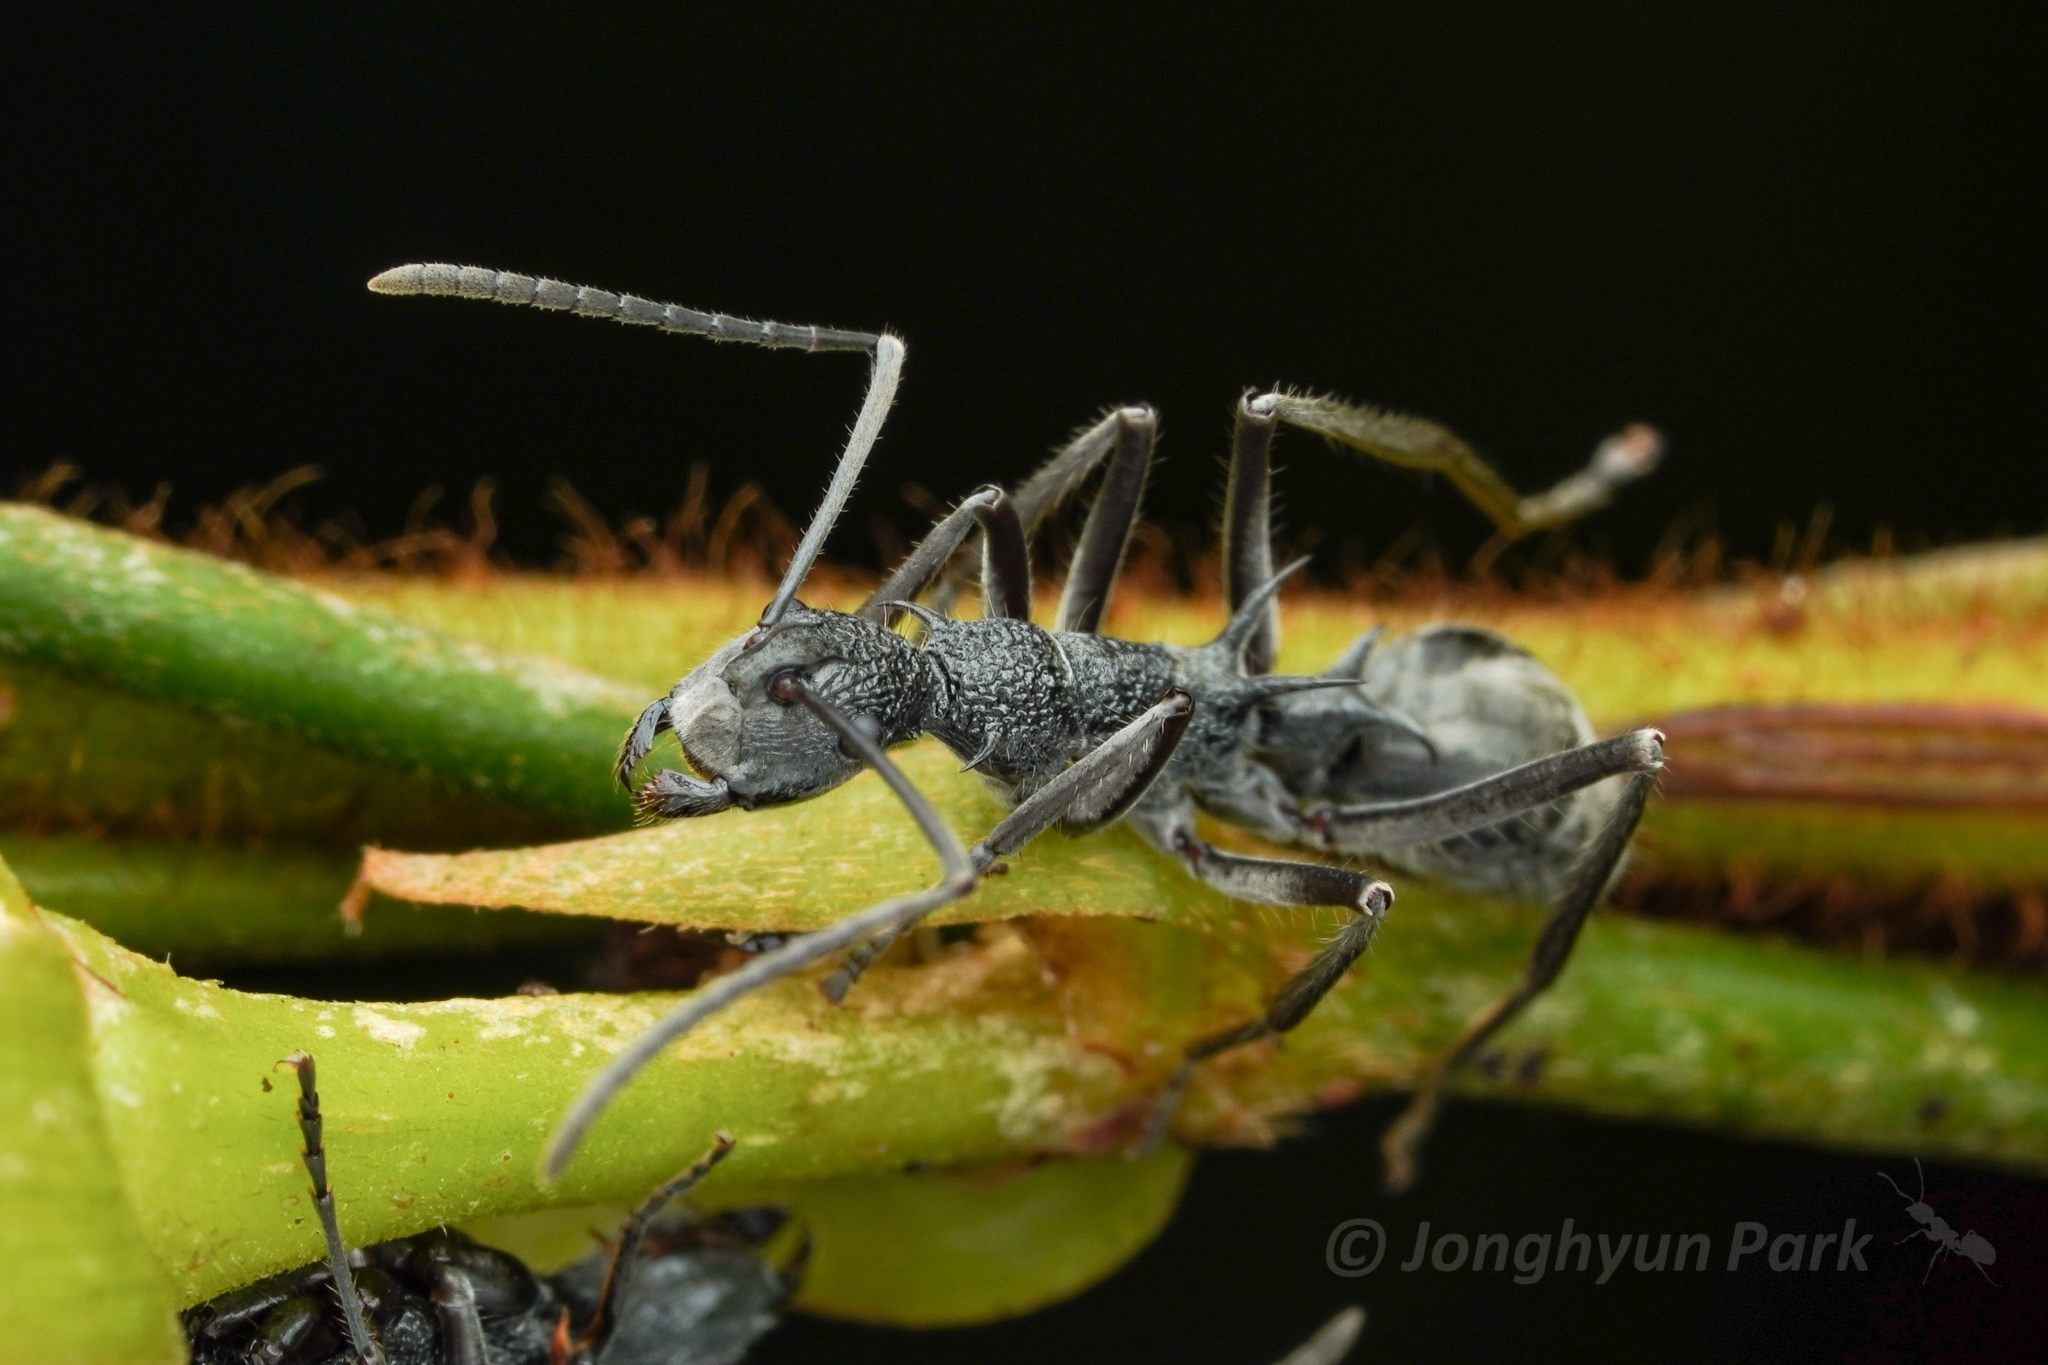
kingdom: Animalia
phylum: Arthropoda
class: Insecta
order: Hymenoptera
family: Formicidae
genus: Polyrhachis
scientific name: Polyrhachis calypso
